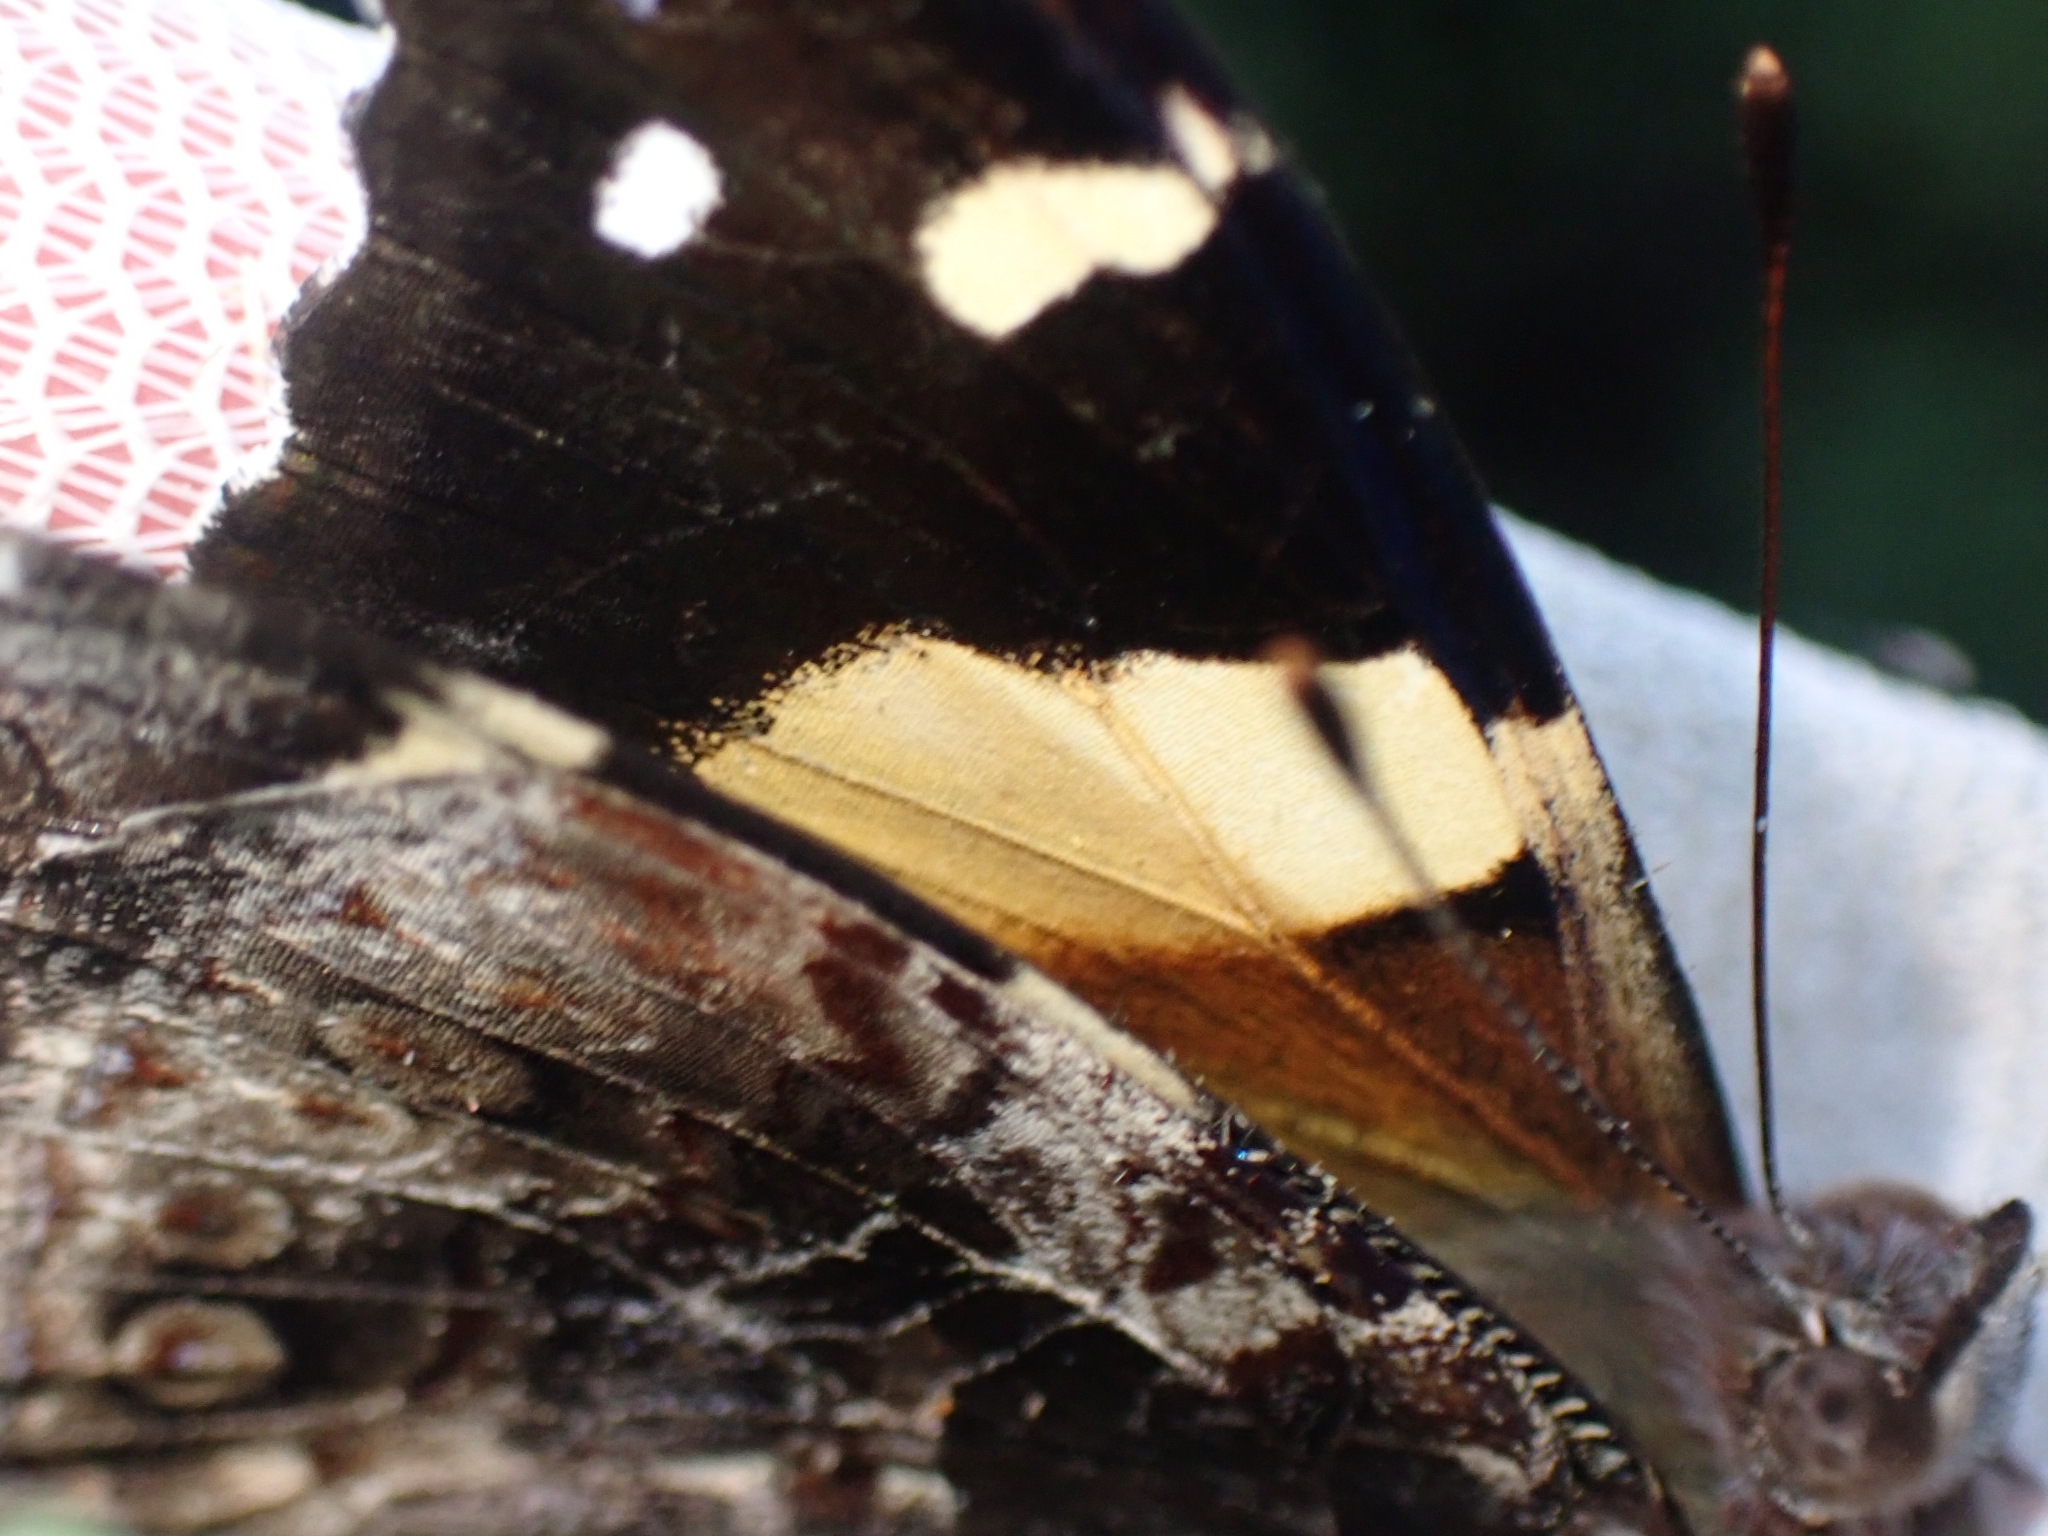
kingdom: Animalia
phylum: Arthropoda
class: Insecta
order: Lepidoptera
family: Nymphalidae
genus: Vanessa
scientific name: Vanessa itea
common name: Yellow admiral
